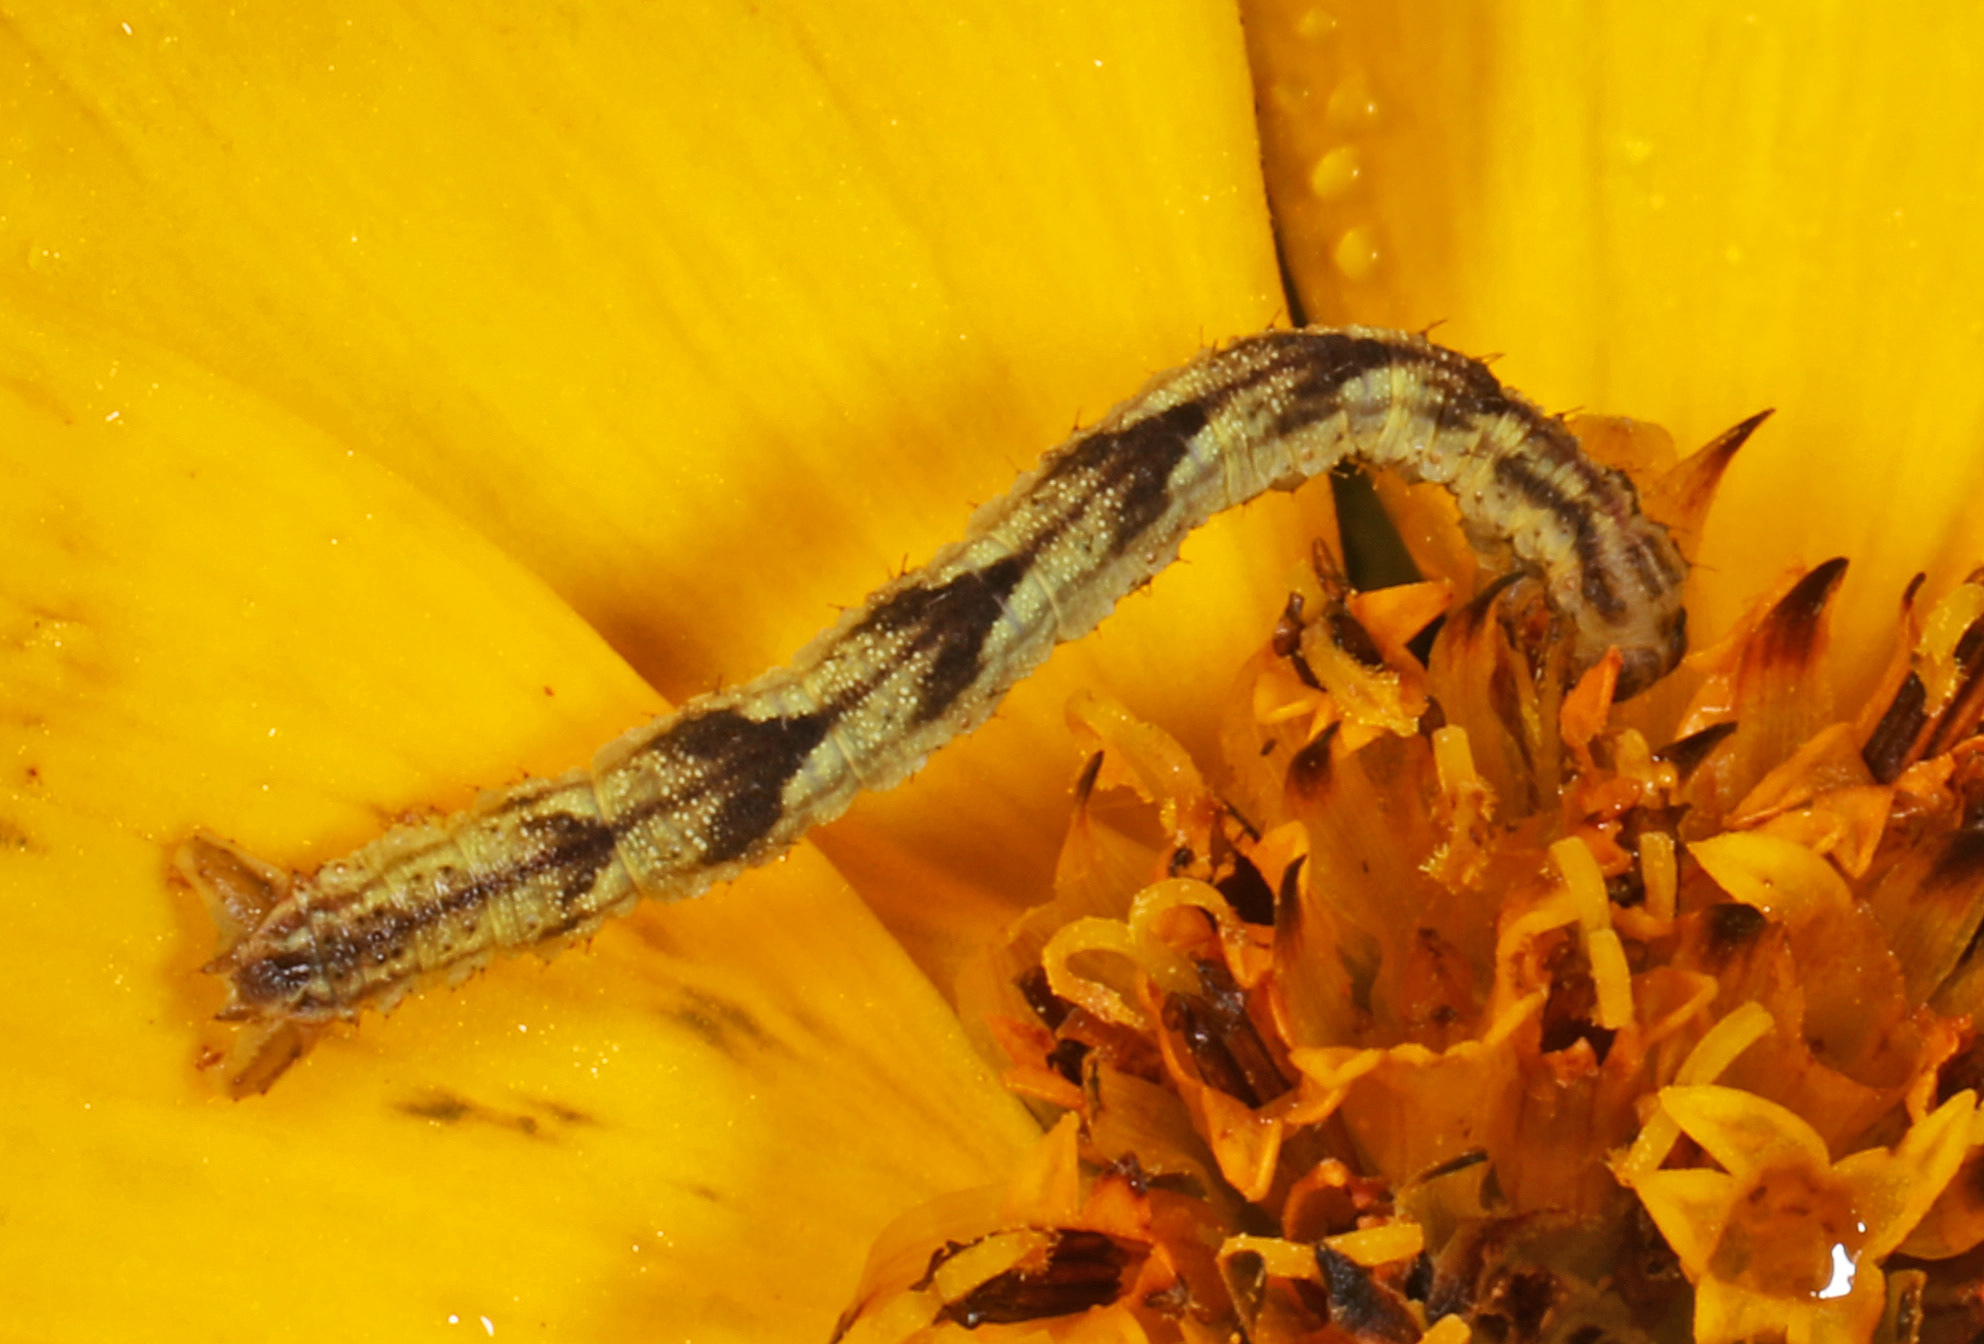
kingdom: Animalia
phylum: Arthropoda
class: Insecta
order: Lepidoptera
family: Geometridae
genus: Eupithecia
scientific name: Eupithecia miserulata
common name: Common eupithecia
